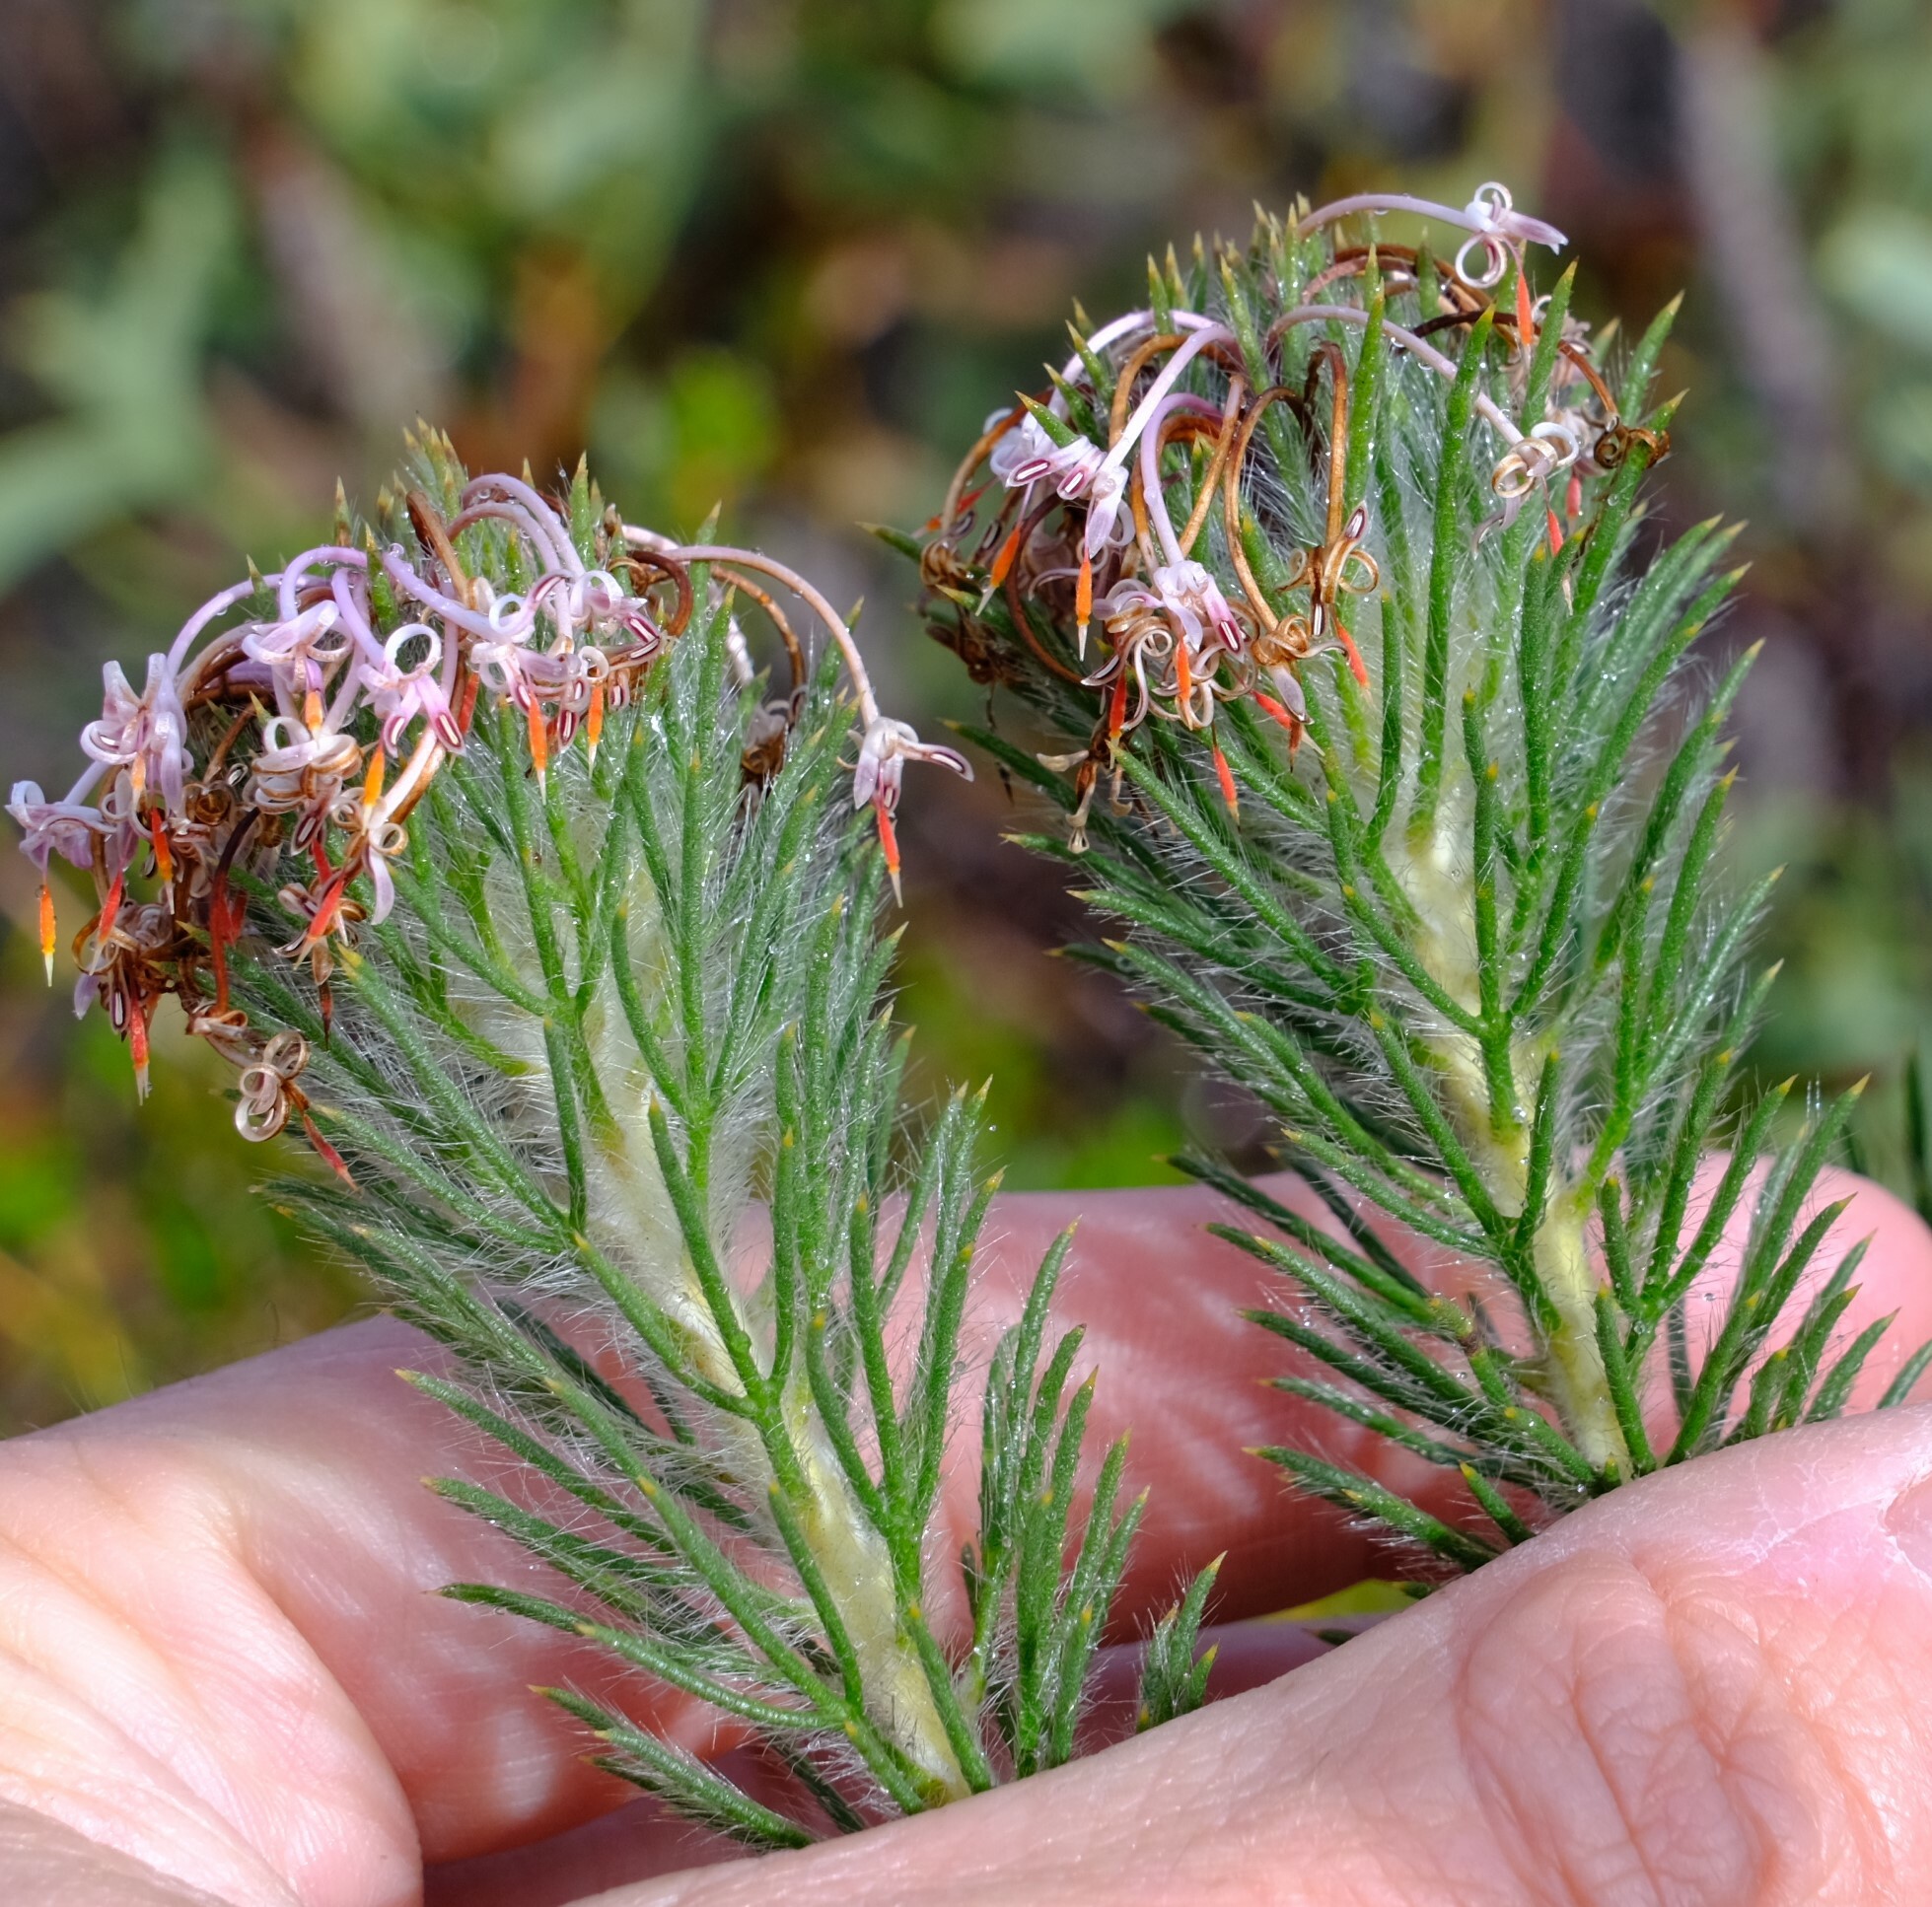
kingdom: Plantae
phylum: Tracheophyta
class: Magnoliopsida
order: Proteales
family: Proteaceae
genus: Isopogon
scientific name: Isopogon adenanthoides
